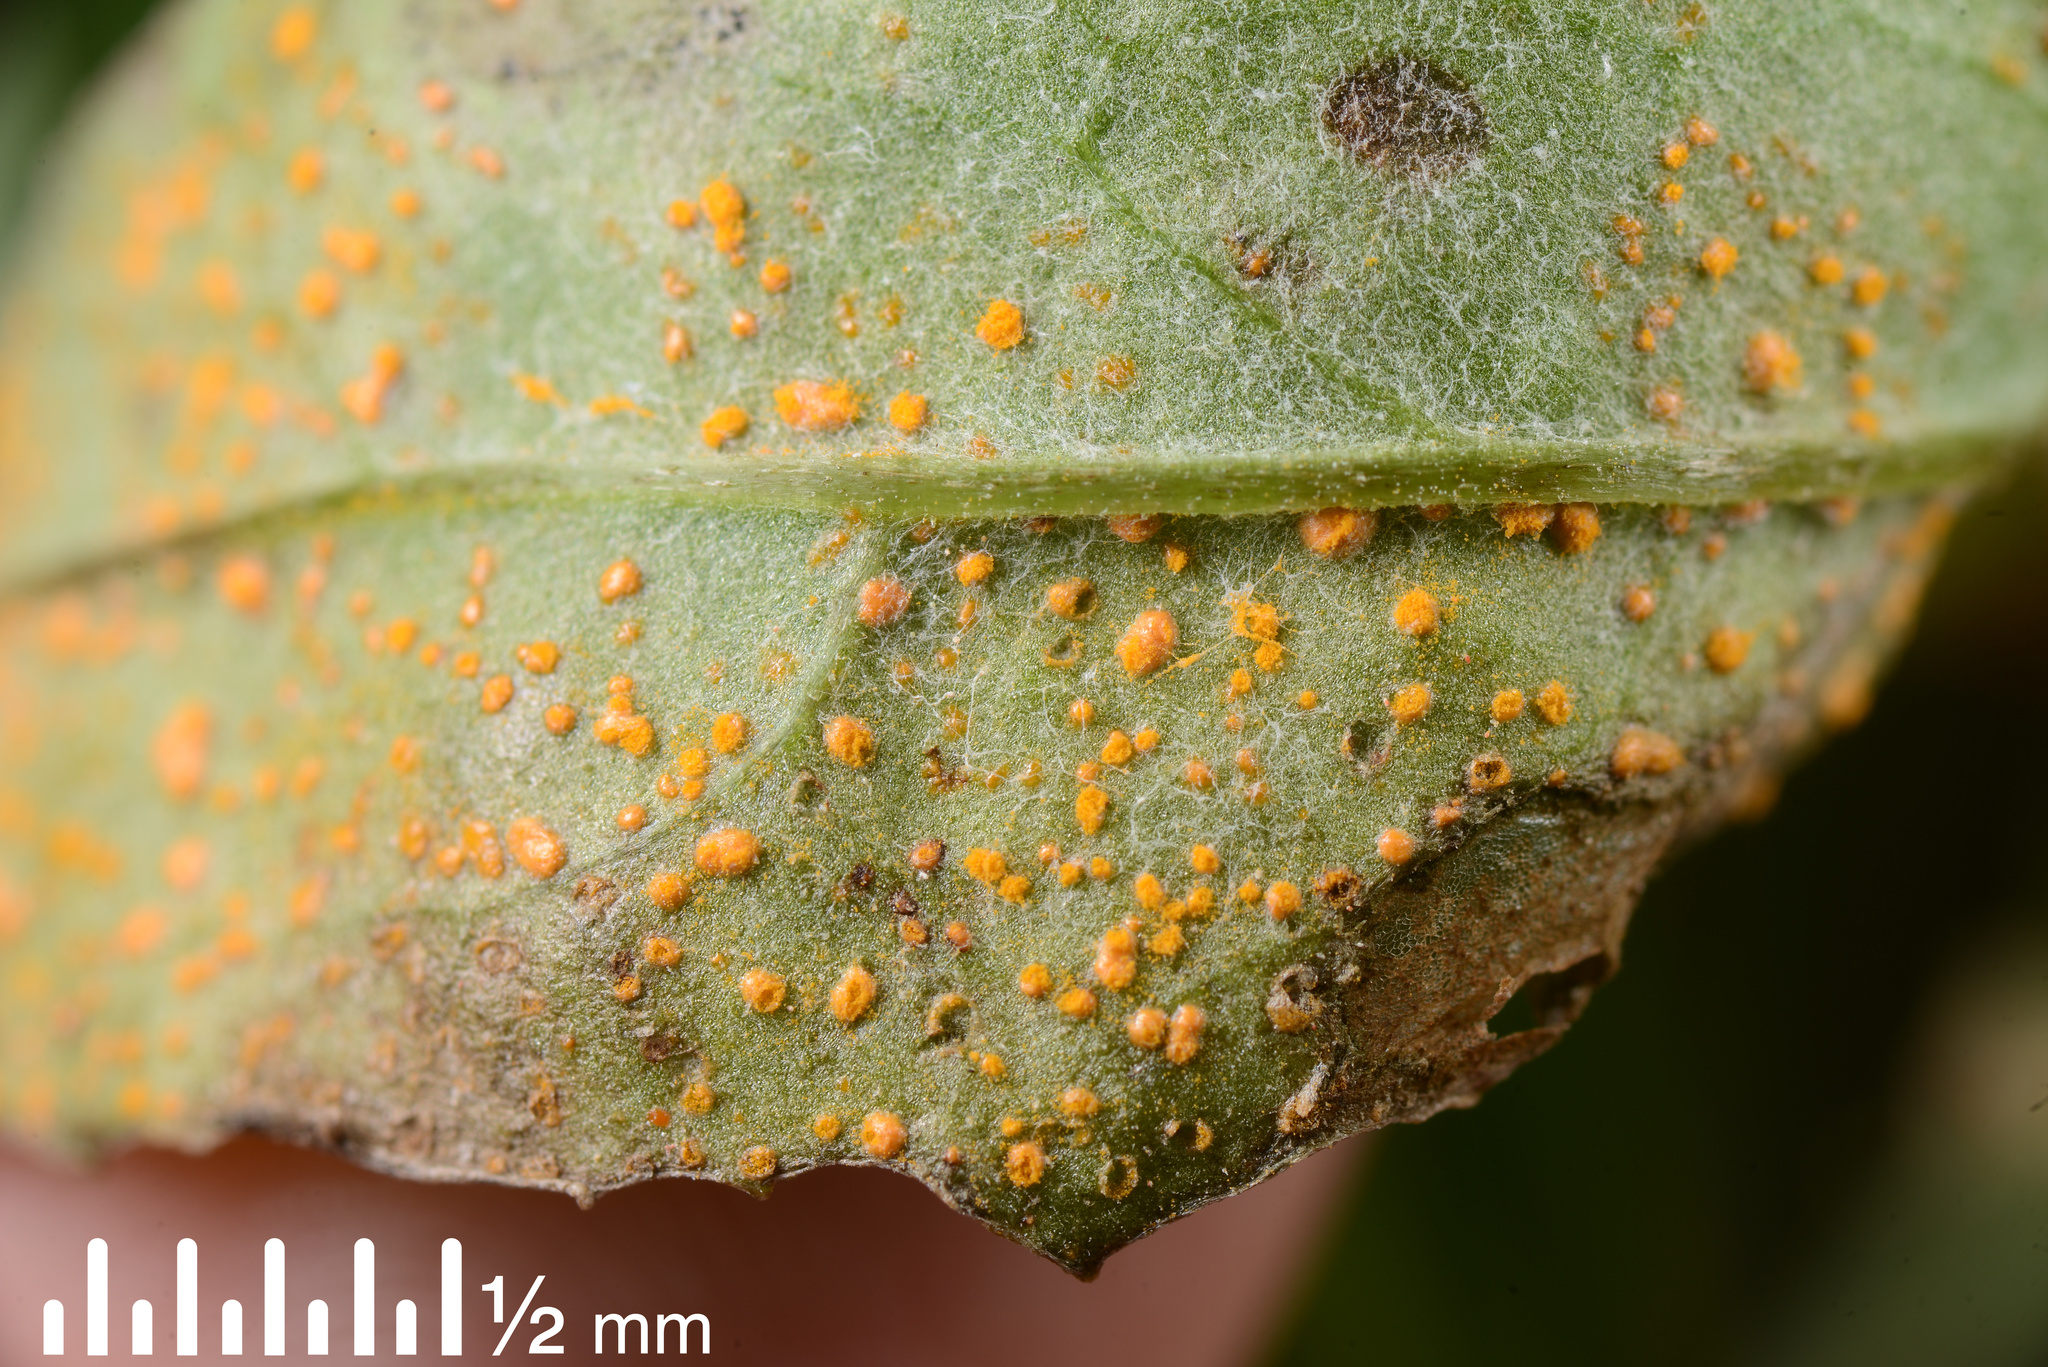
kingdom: Fungi
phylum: Basidiomycota
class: Pucciniomycetes
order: Pucciniales
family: Coleosporiaceae
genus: Coleosporium
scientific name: Coleosporium tussilaginis
